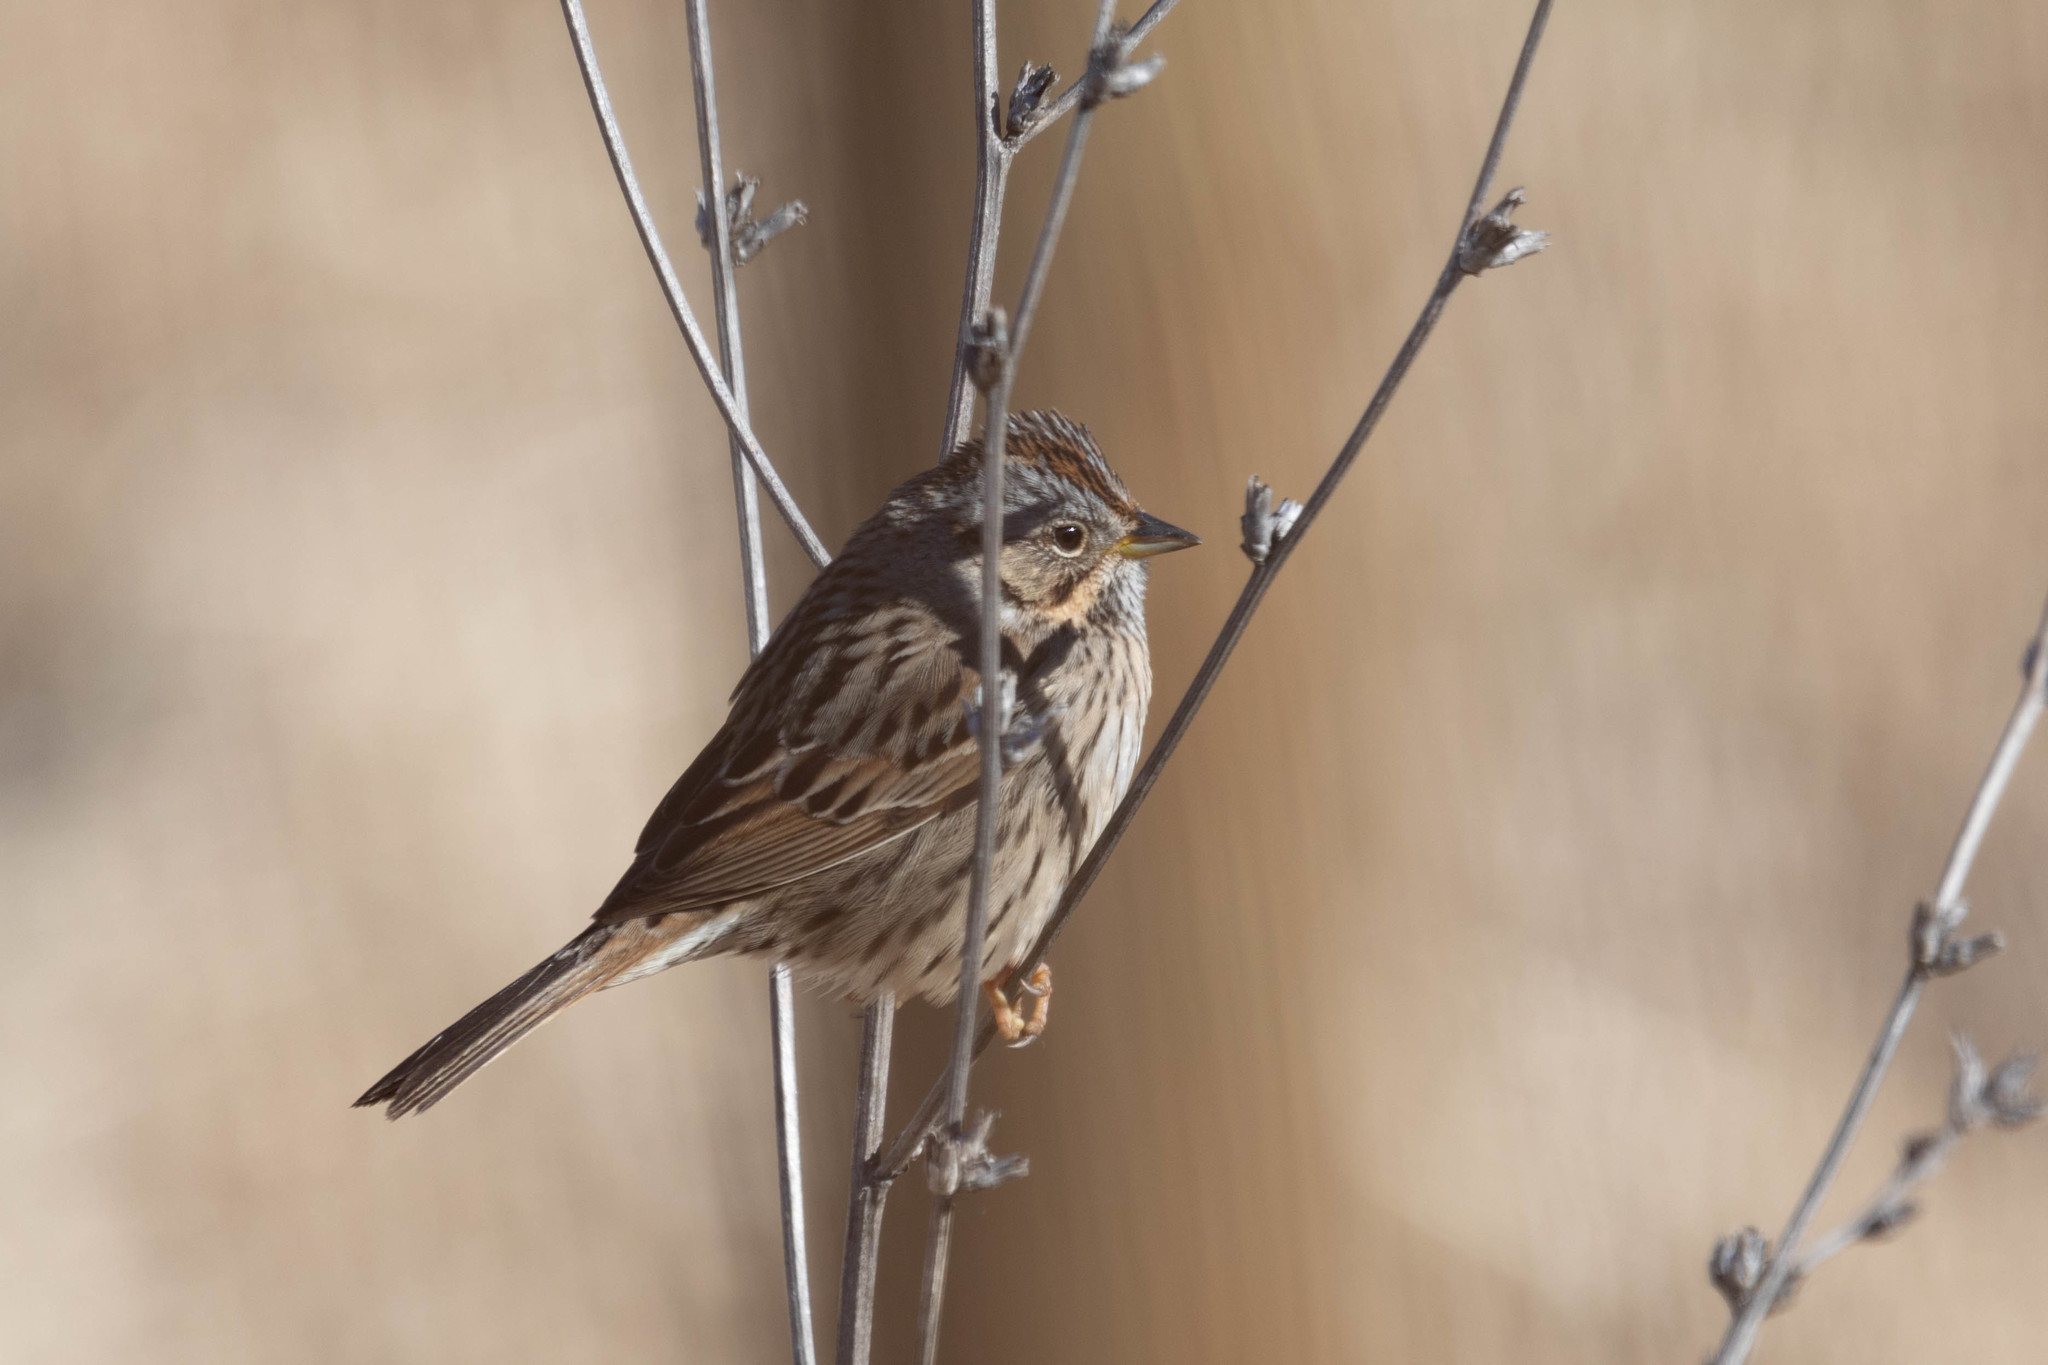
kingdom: Animalia
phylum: Chordata
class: Aves
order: Passeriformes
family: Passerellidae
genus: Melospiza
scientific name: Melospiza lincolnii
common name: Lincoln's sparrow
